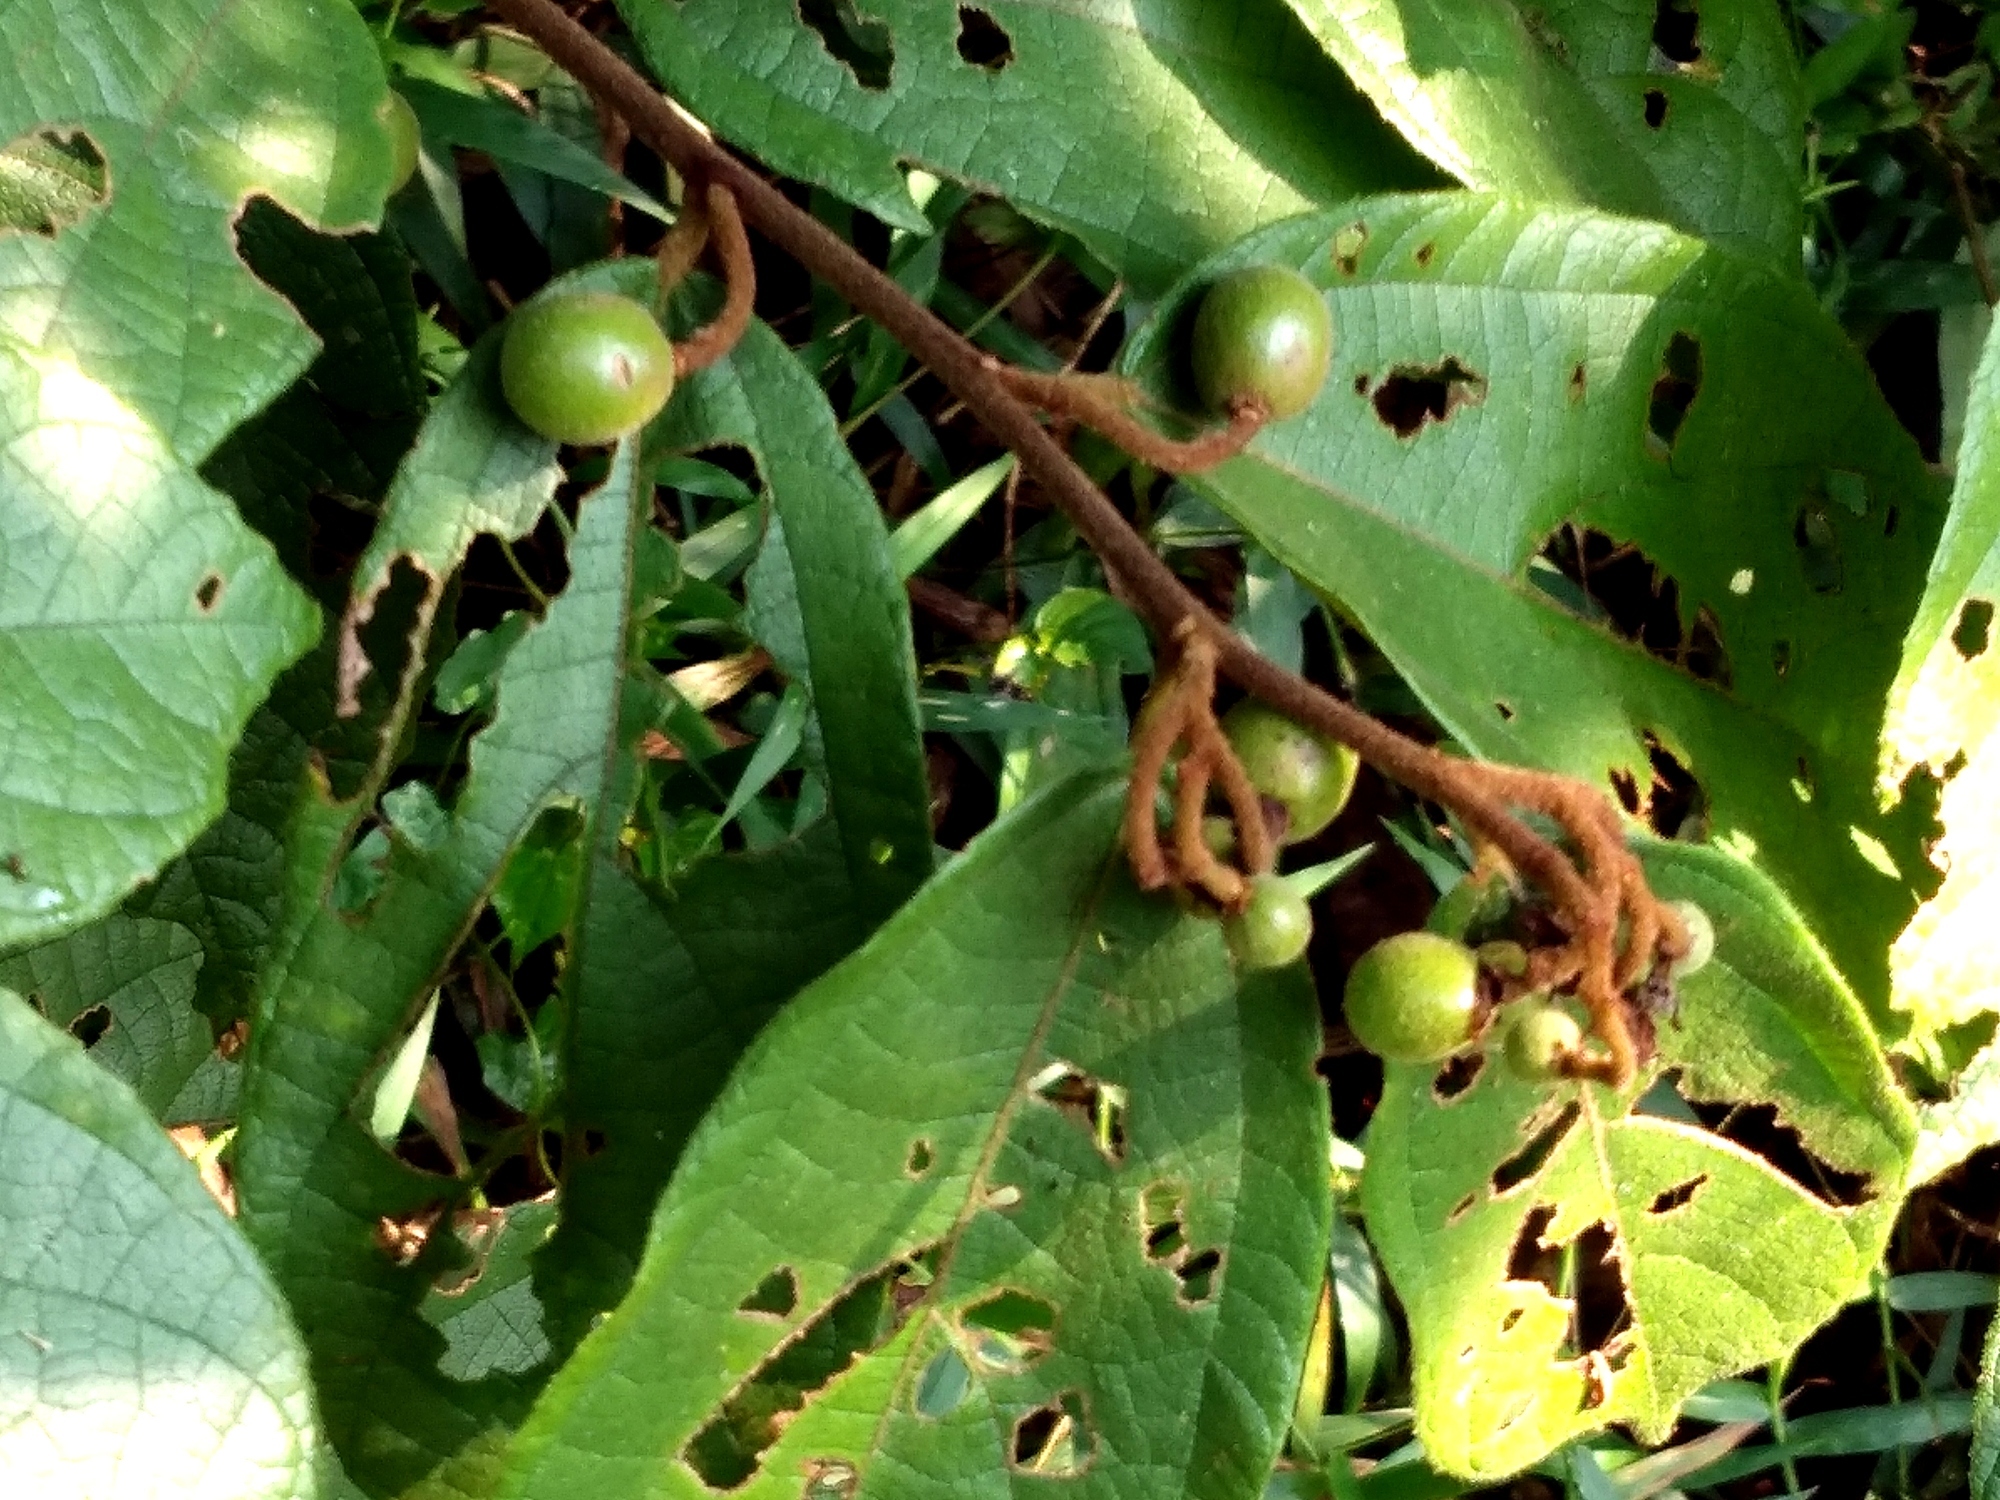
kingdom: Plantae
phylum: Tracheophyta
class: Magnoliopsida
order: Malvales
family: Malvaceae
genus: Microcos
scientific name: Microcos tomentosa
